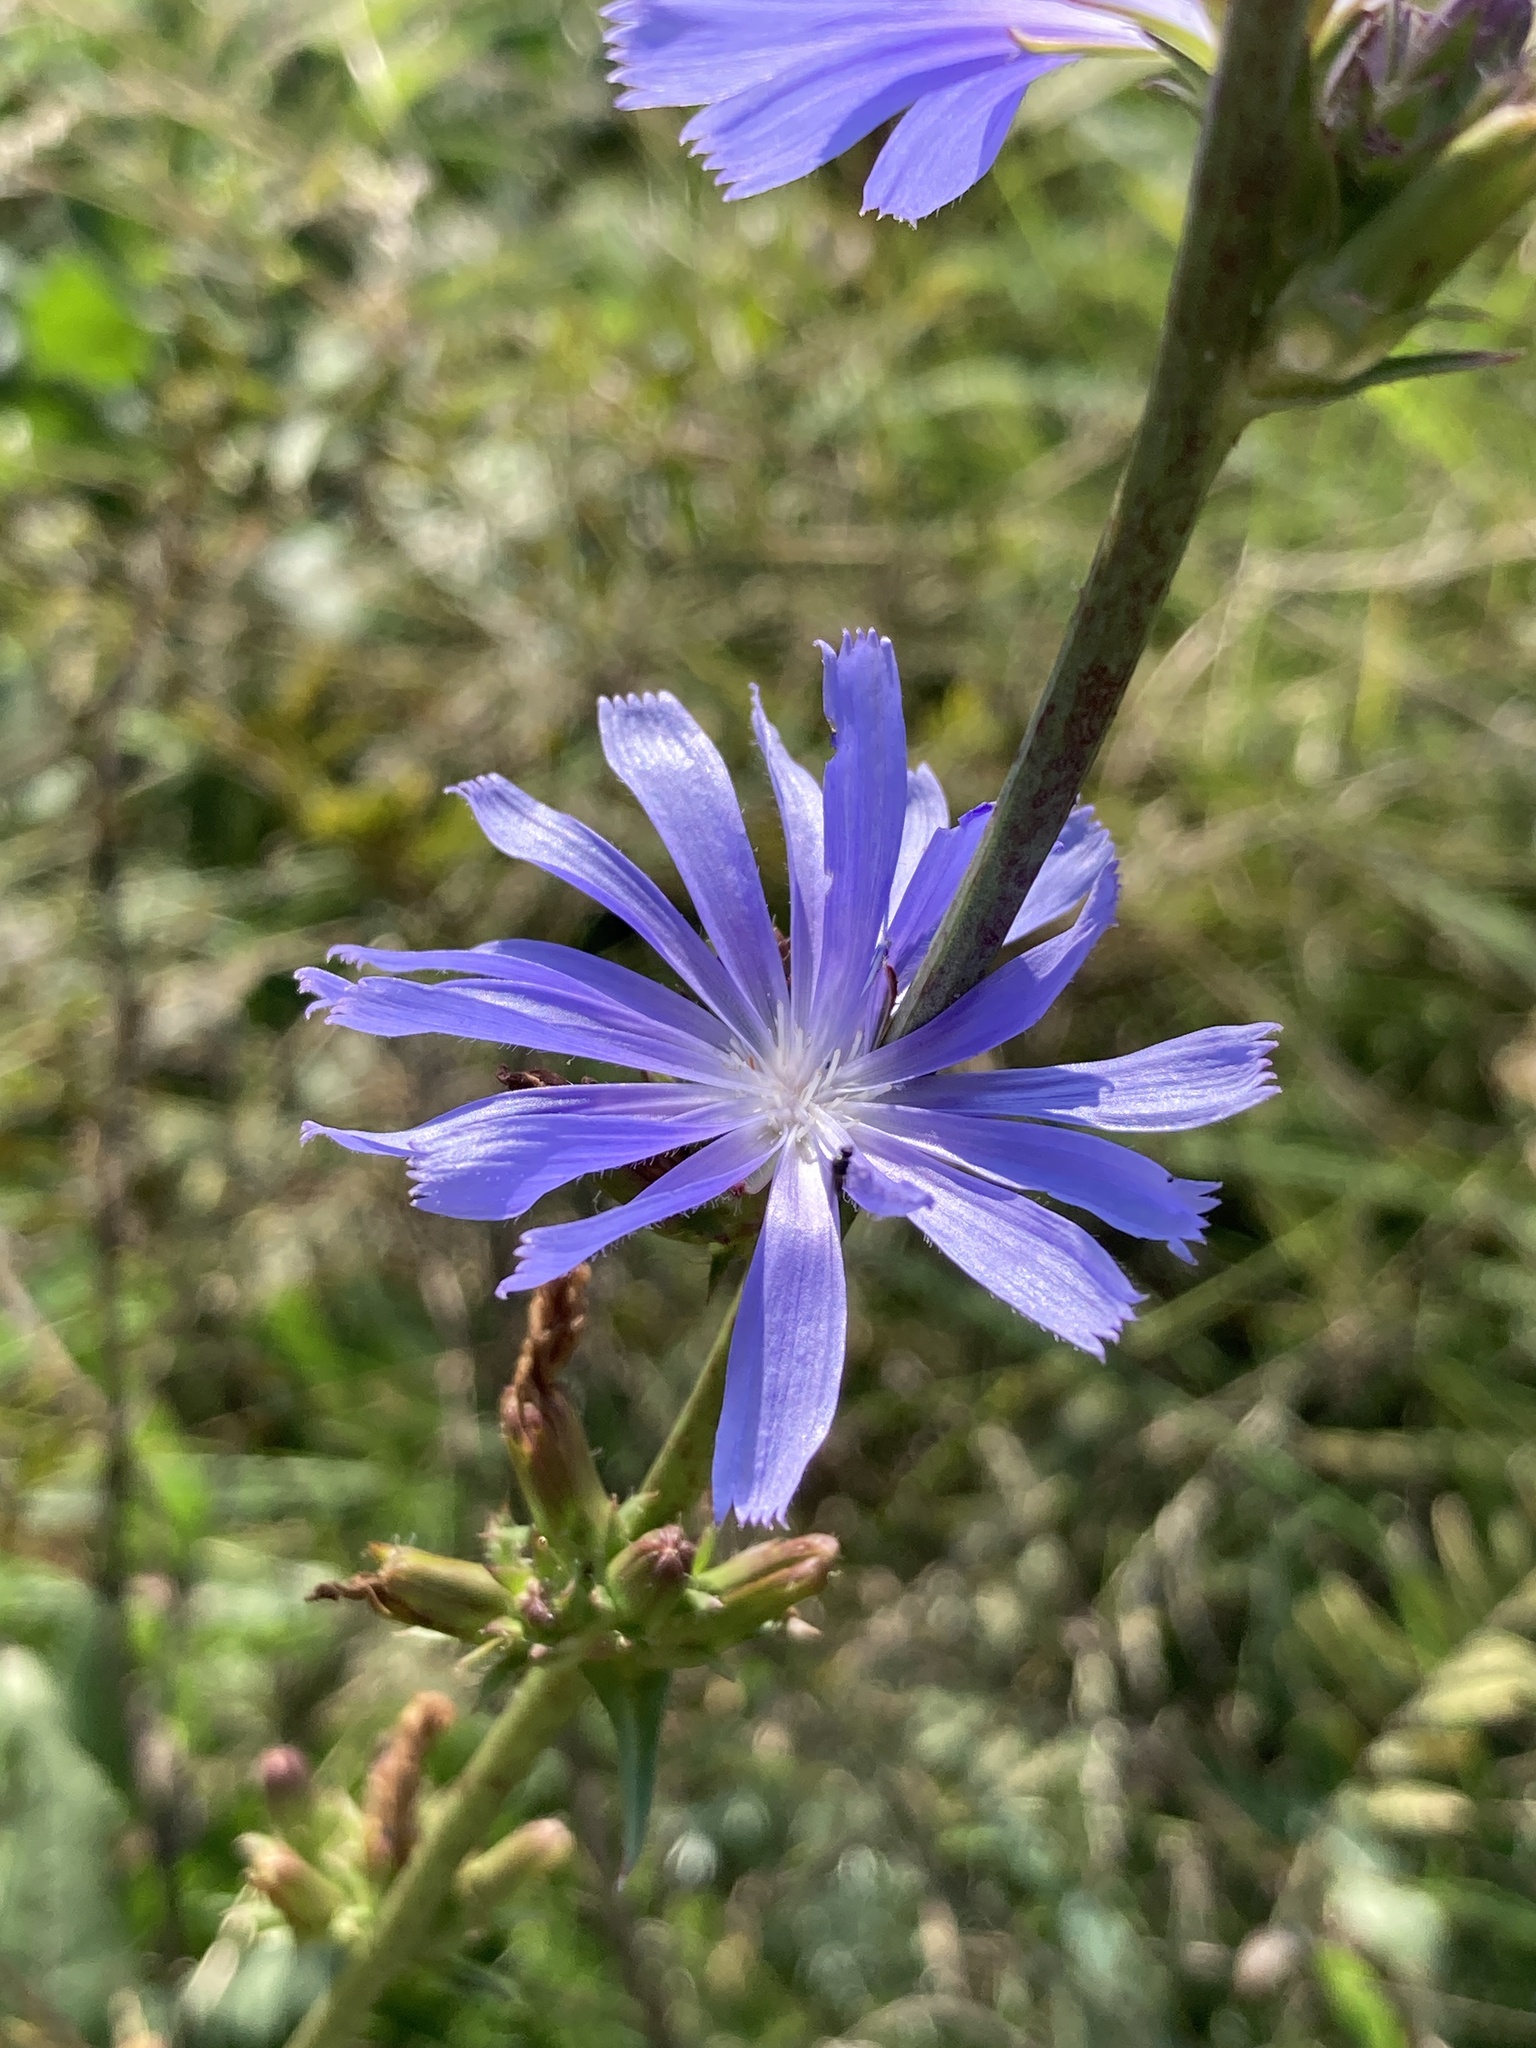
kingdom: Plantae
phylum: Tracheophyta
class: Magnoliopsida
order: Asterales
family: Asteraceae
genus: Cichorium
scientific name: Cichorium intybus
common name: Chicory
